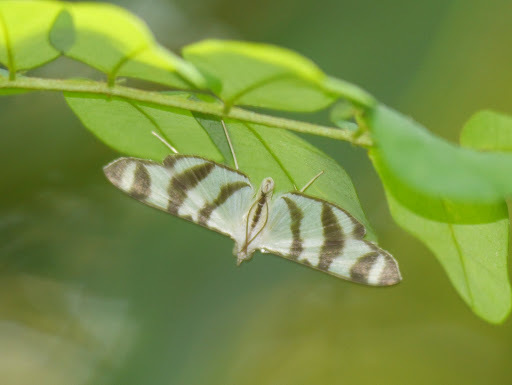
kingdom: Animalia
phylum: Arthropoda
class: Insecta
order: Lepidoptera
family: Crambidae
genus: Zebronia
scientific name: Zebronia phenice
